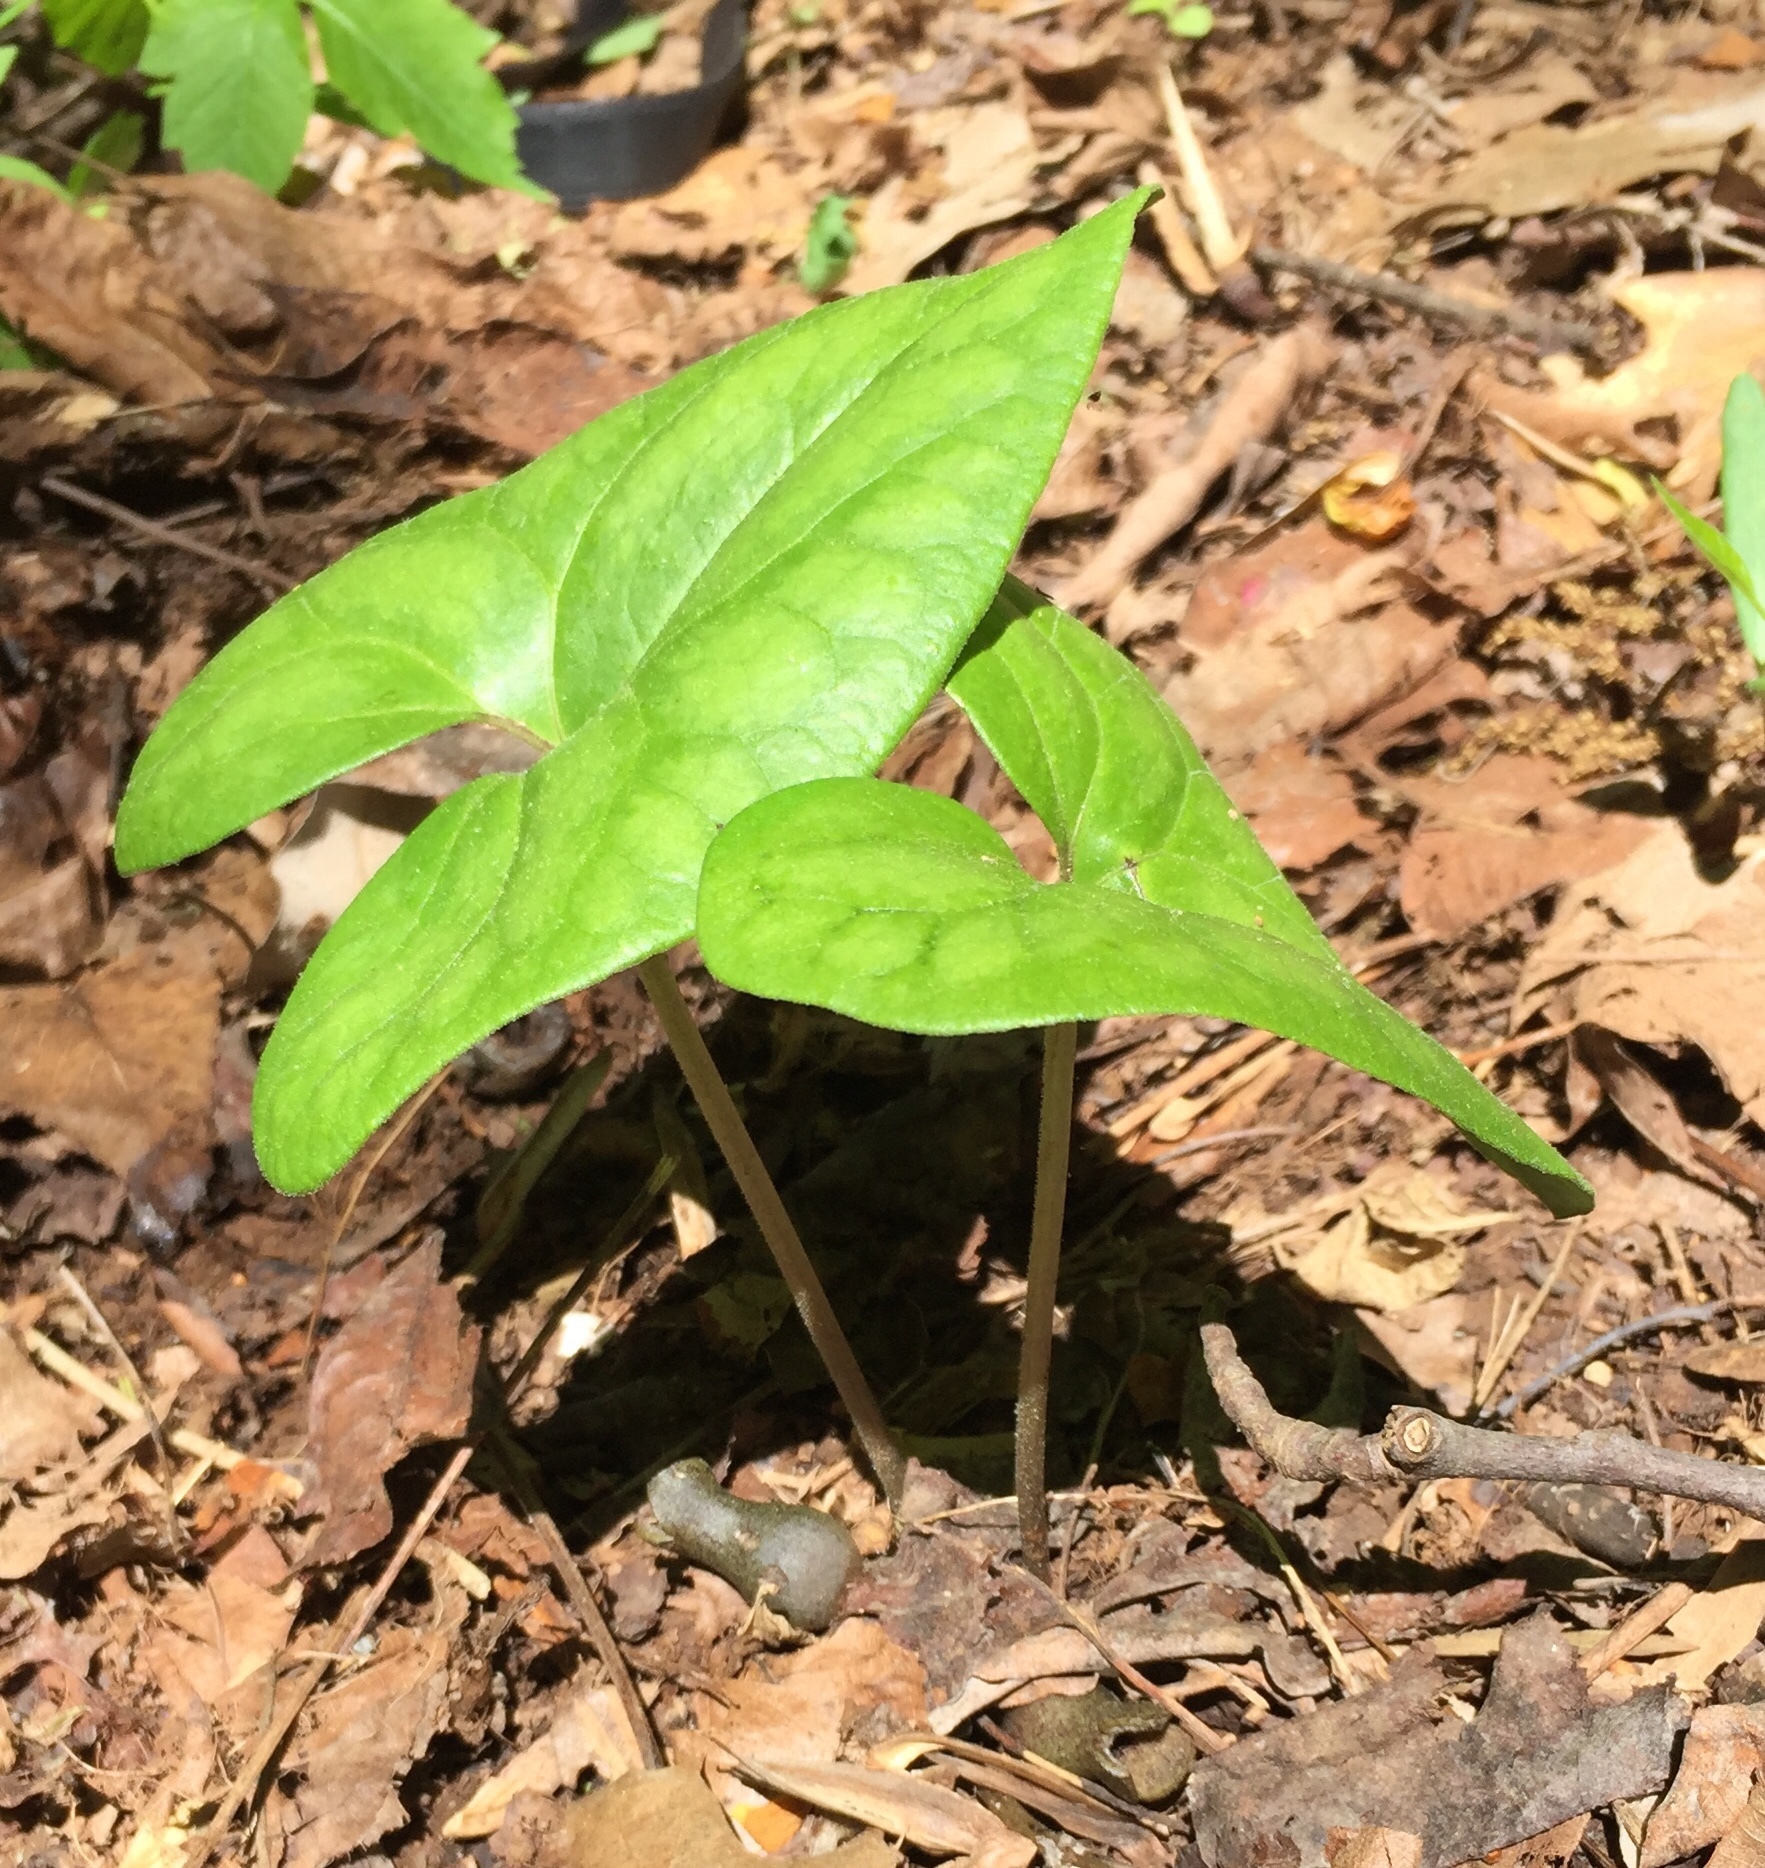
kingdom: Plantae
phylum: Tracheophyta
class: Magnoliopsida
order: Piperales
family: Aristolochiaceae
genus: Hexastylis
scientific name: Hexastylis arifolia
